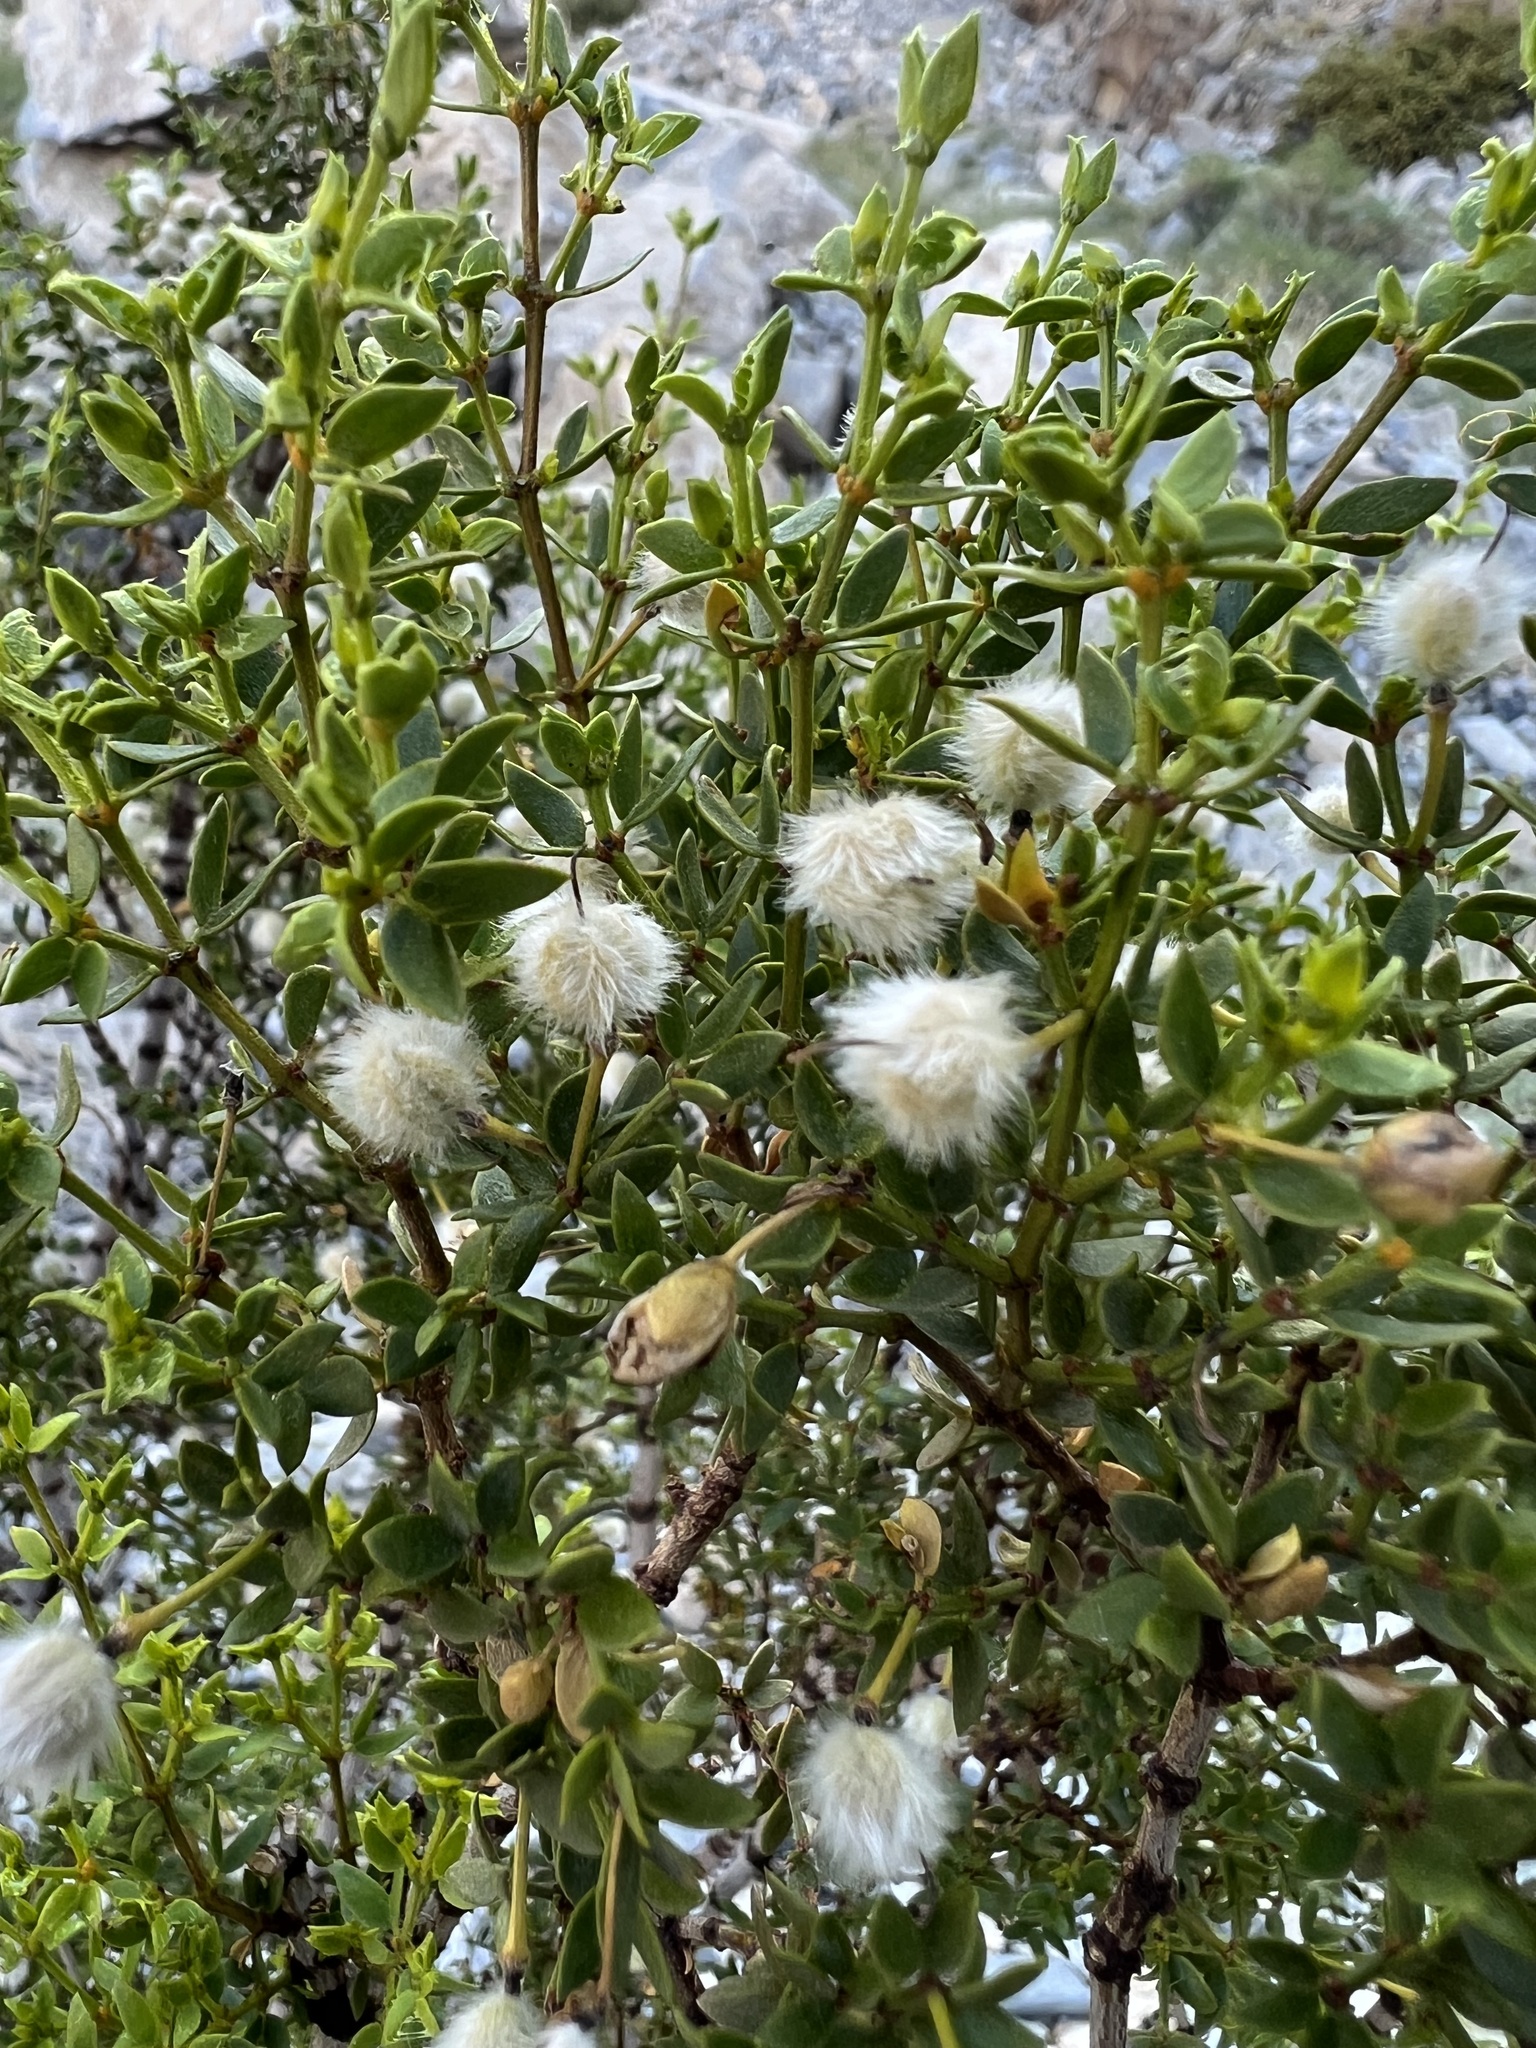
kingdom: Plantae
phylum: Tracheophyta
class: Magnoliopsida
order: Zygophyllales
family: Zygophyllaceae
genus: Larrea
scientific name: Larrea tridentata
